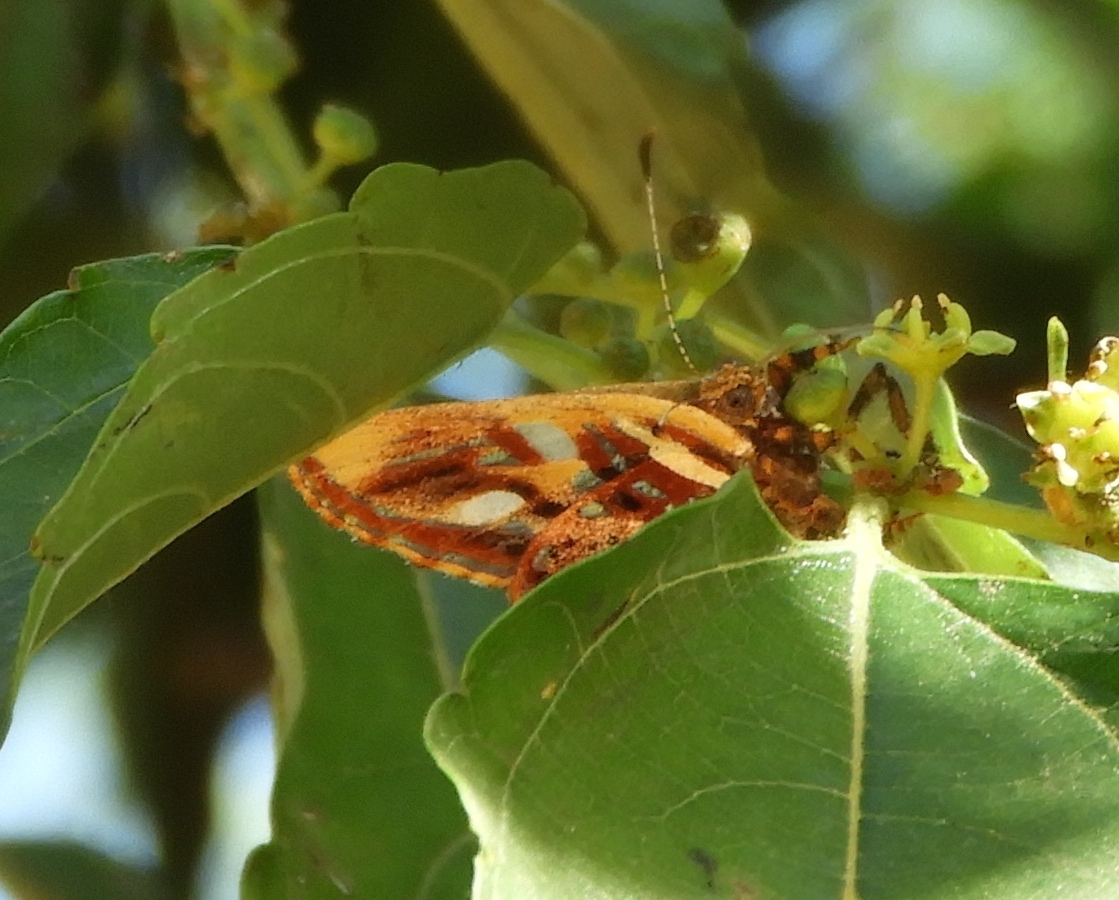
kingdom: Animalia
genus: Anteros
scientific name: Anteros carausius
